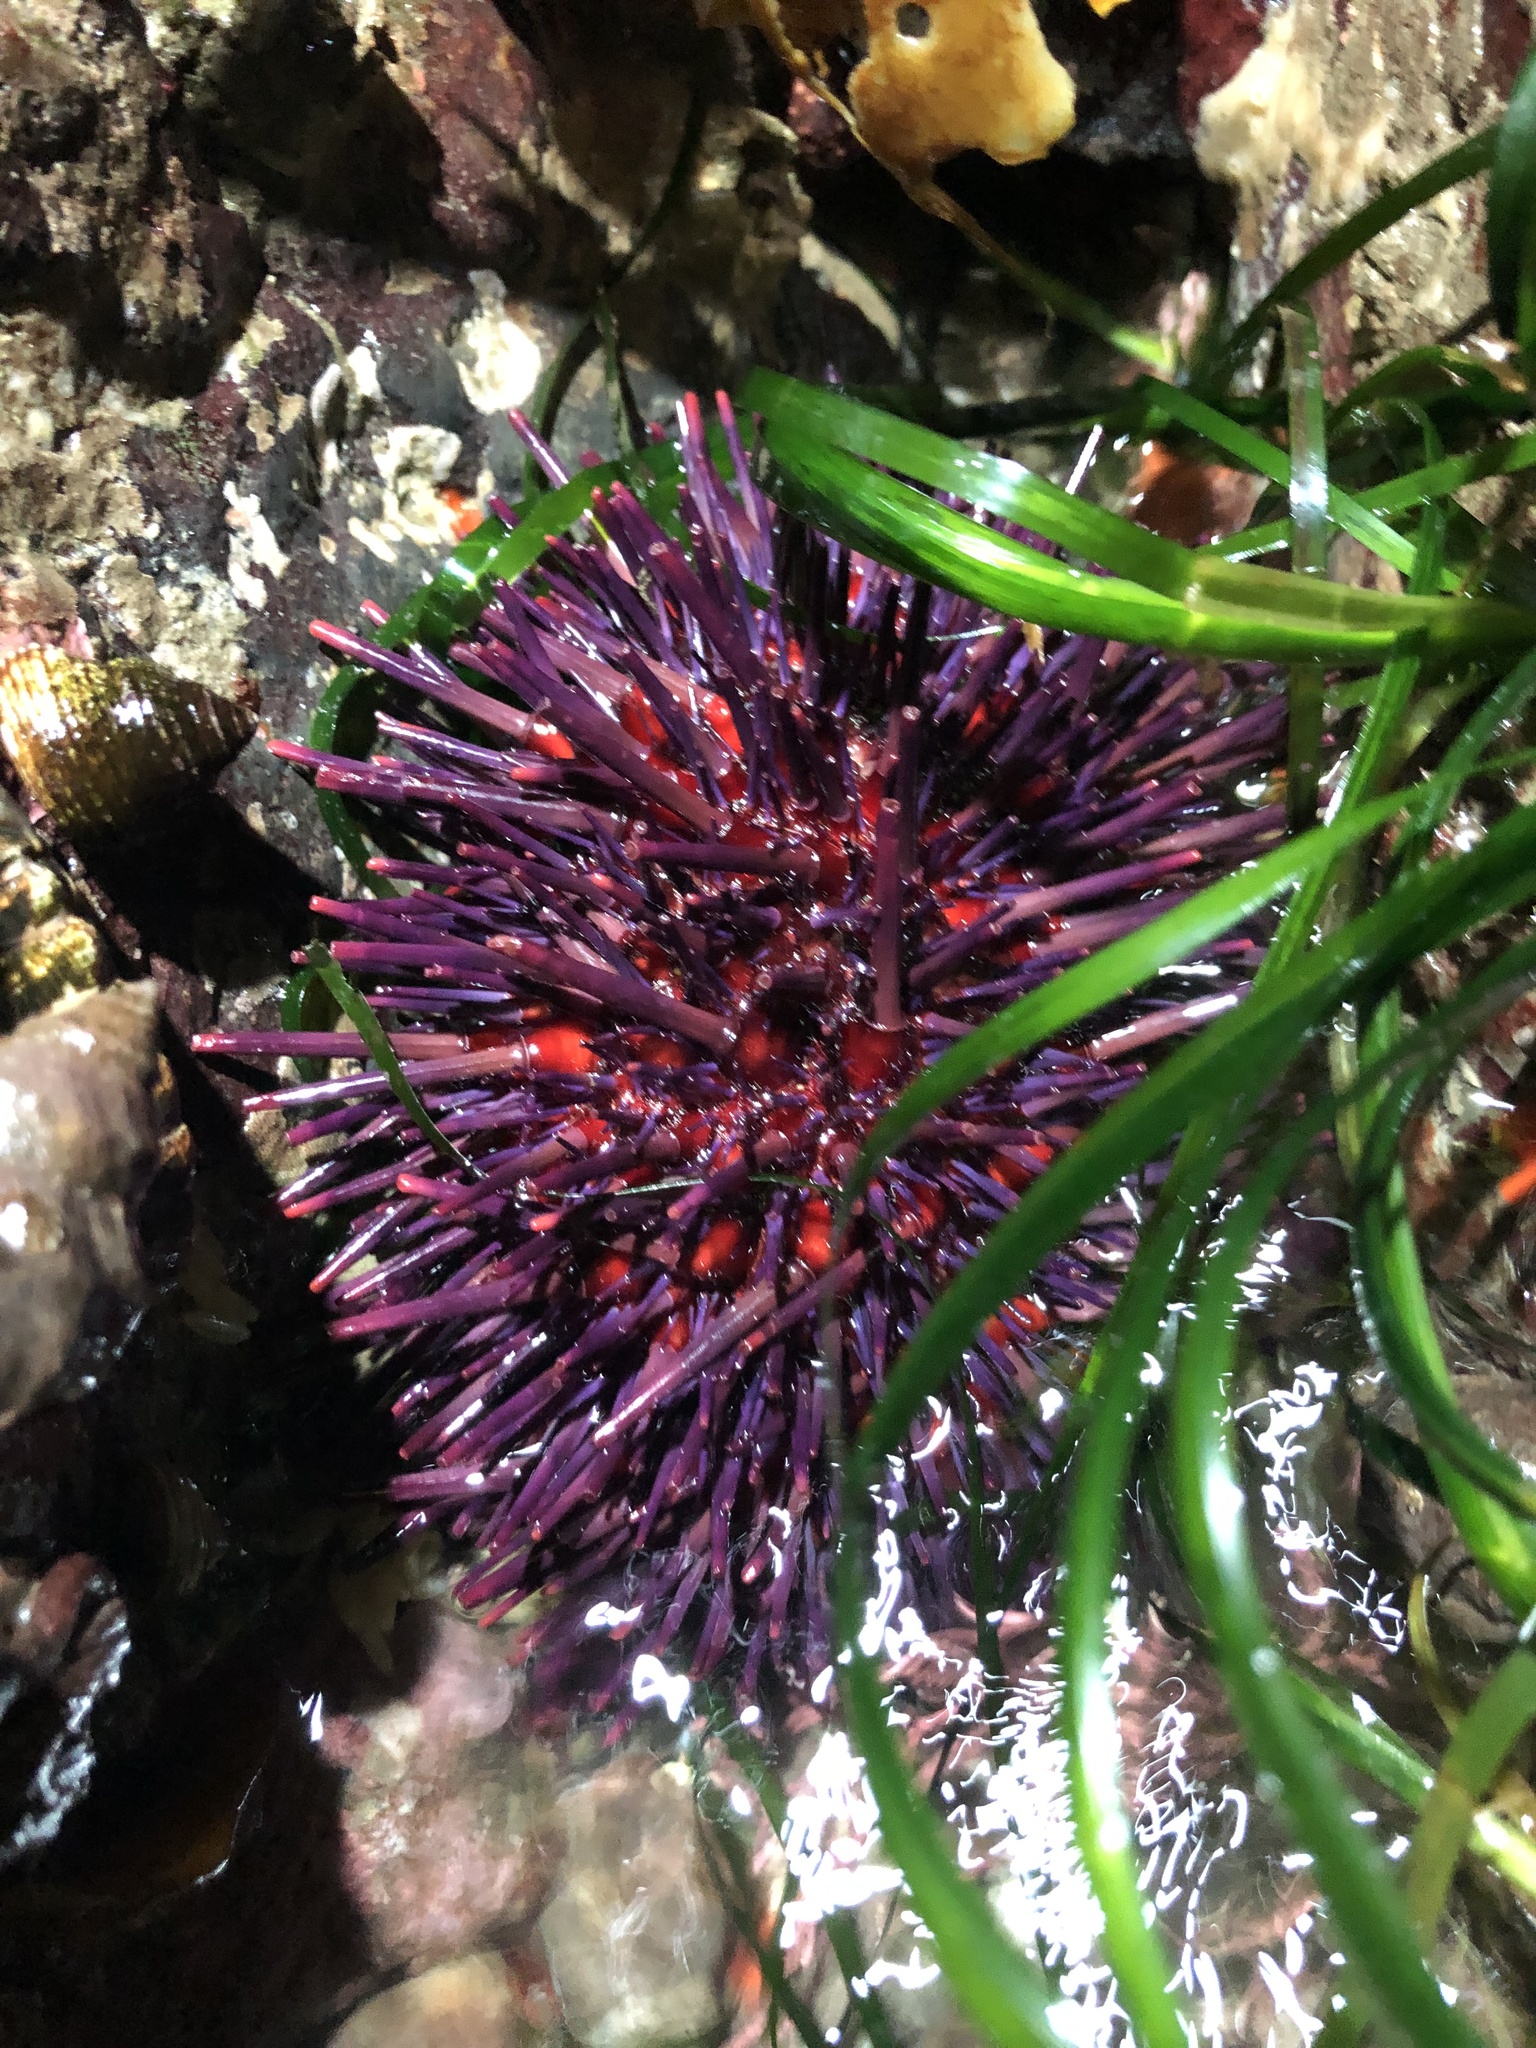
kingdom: Animalia
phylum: Echinodermata
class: Echinoidea
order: Camarodonta
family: Strongylocentrotidae
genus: Mesocentrotus
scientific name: Mesocentrotus franciscanus
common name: Red sea urchin
